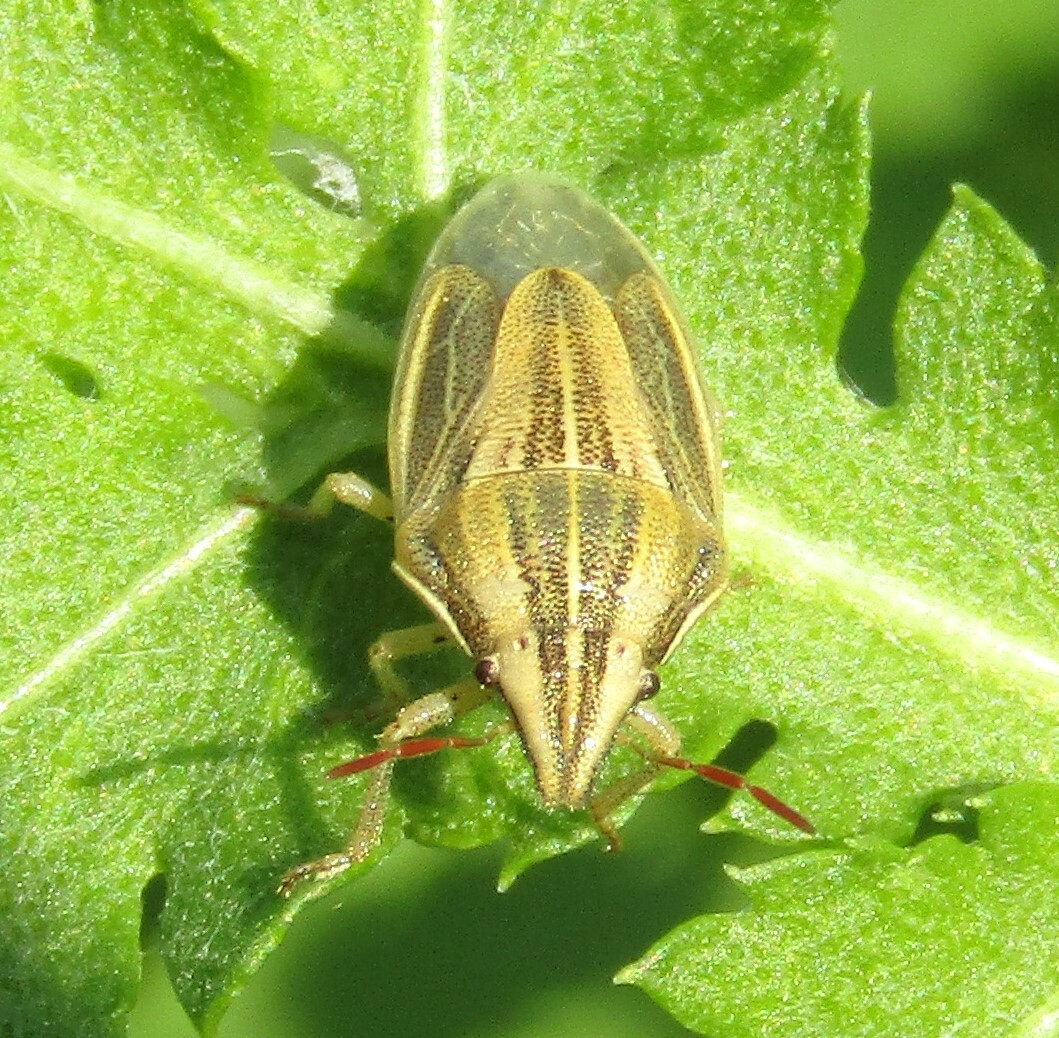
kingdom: Animalia
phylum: Arthropoda
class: Insecta
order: Hemiptera
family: Pentatomidae
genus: Aelia
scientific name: Aelia acuminata
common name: Bishop's mitre
